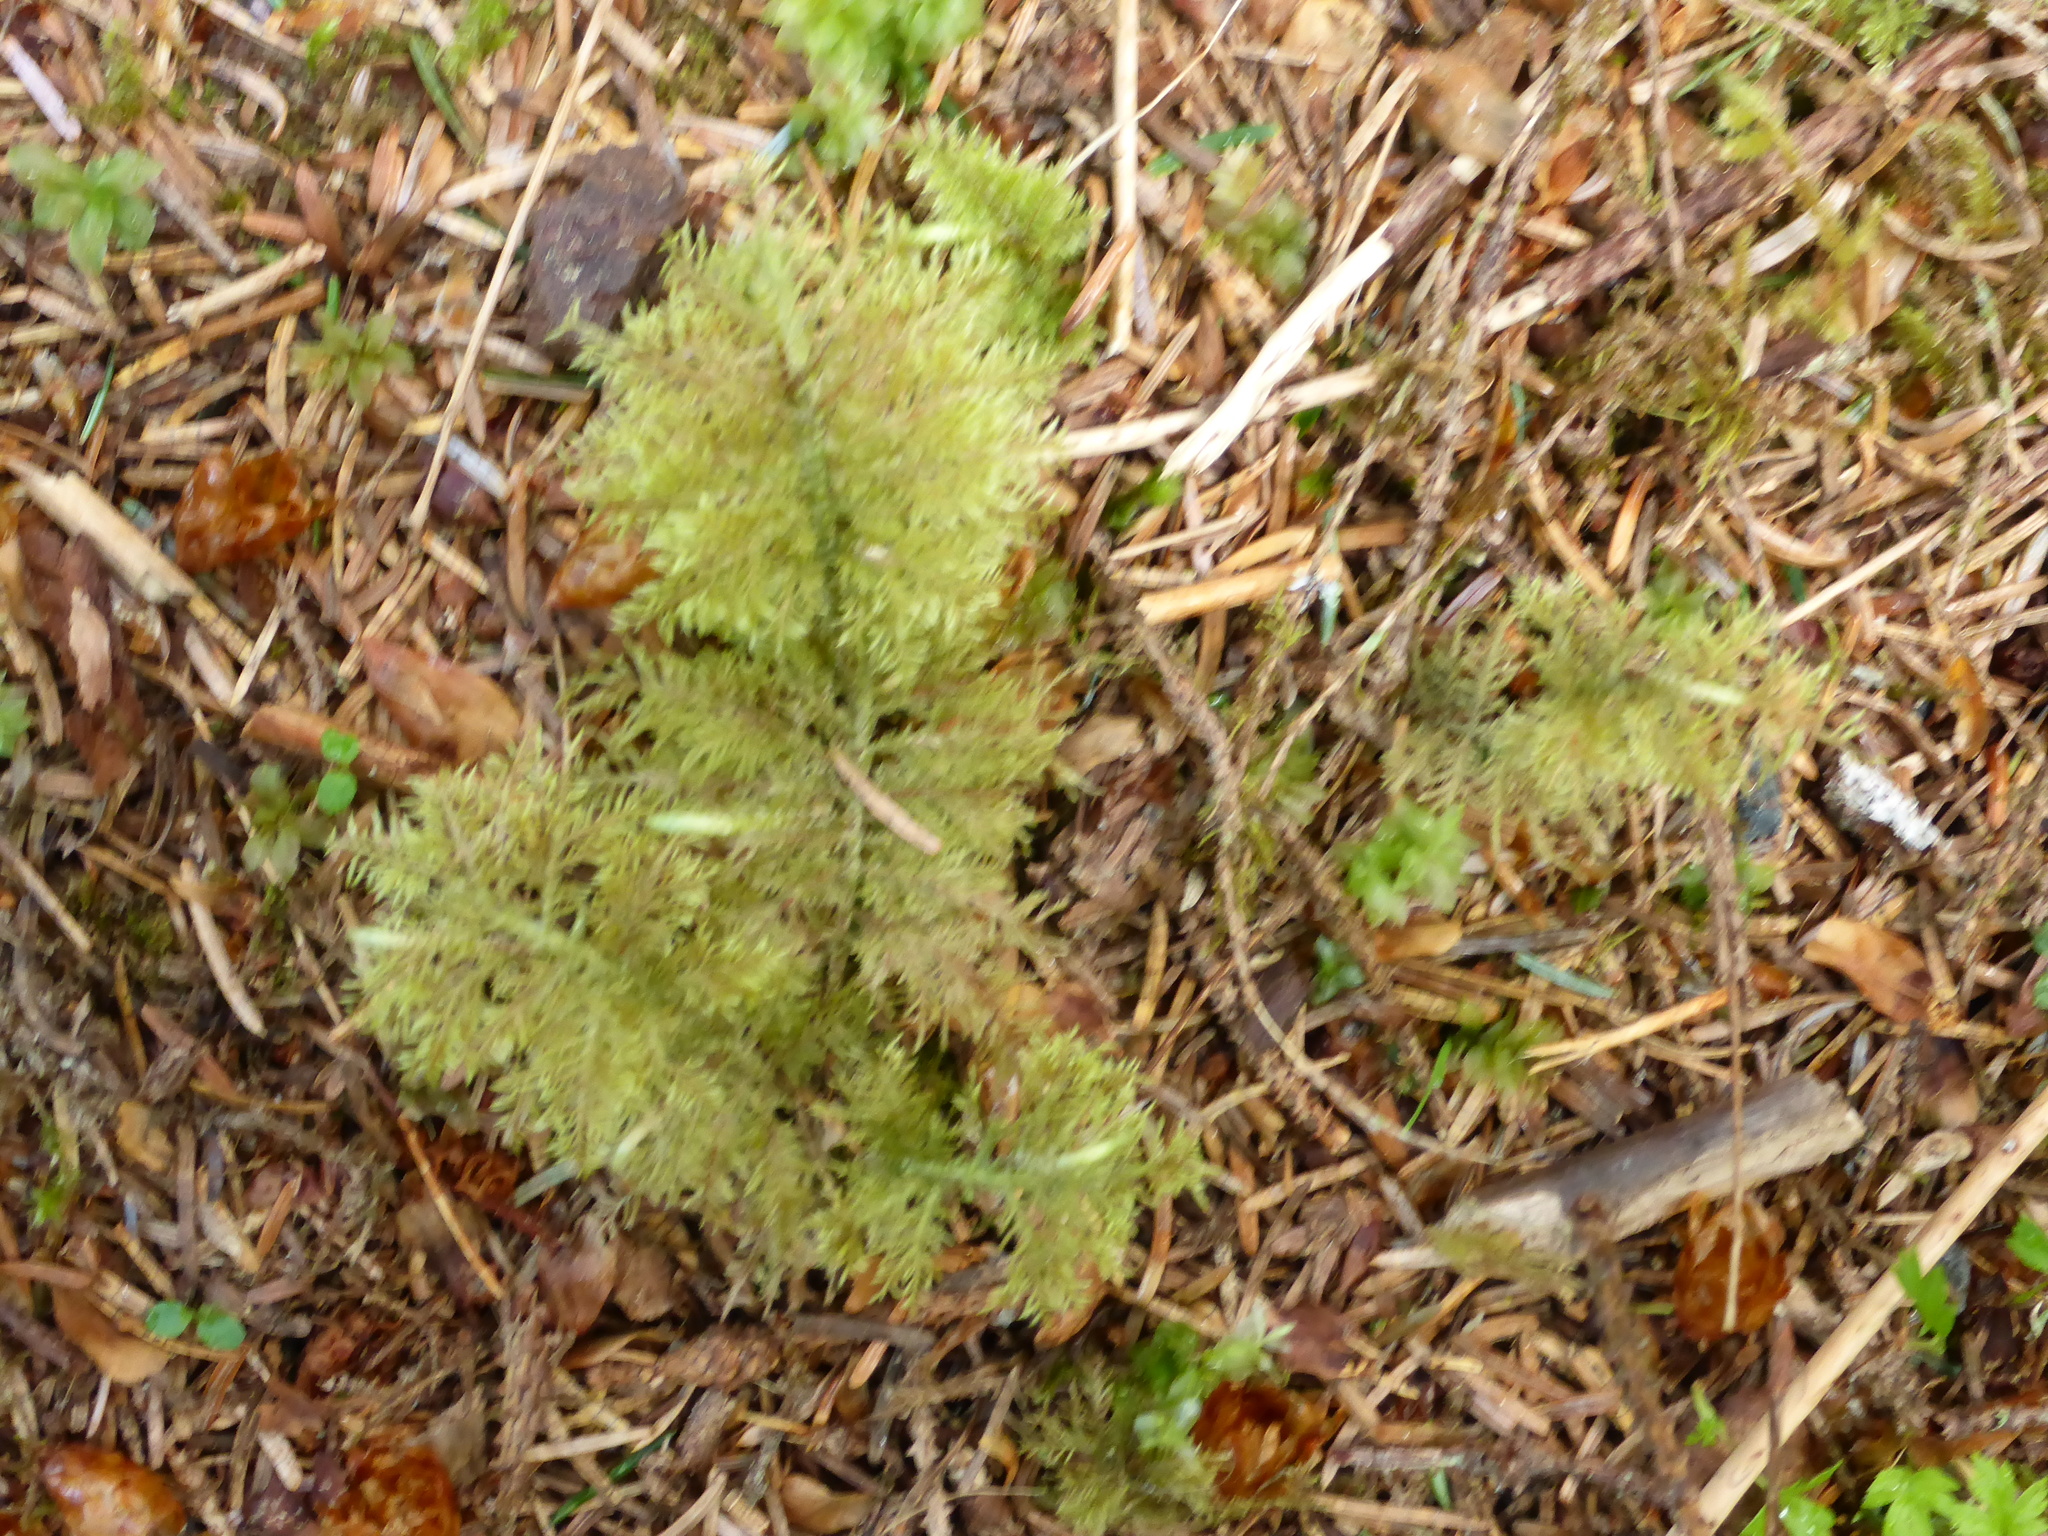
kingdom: Plantae
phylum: Bryophyta
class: Bryopsida
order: Hypnales
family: Hylocomiaceae
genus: Hylocomium
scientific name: Hylocomium splendens
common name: Stairstep moss
